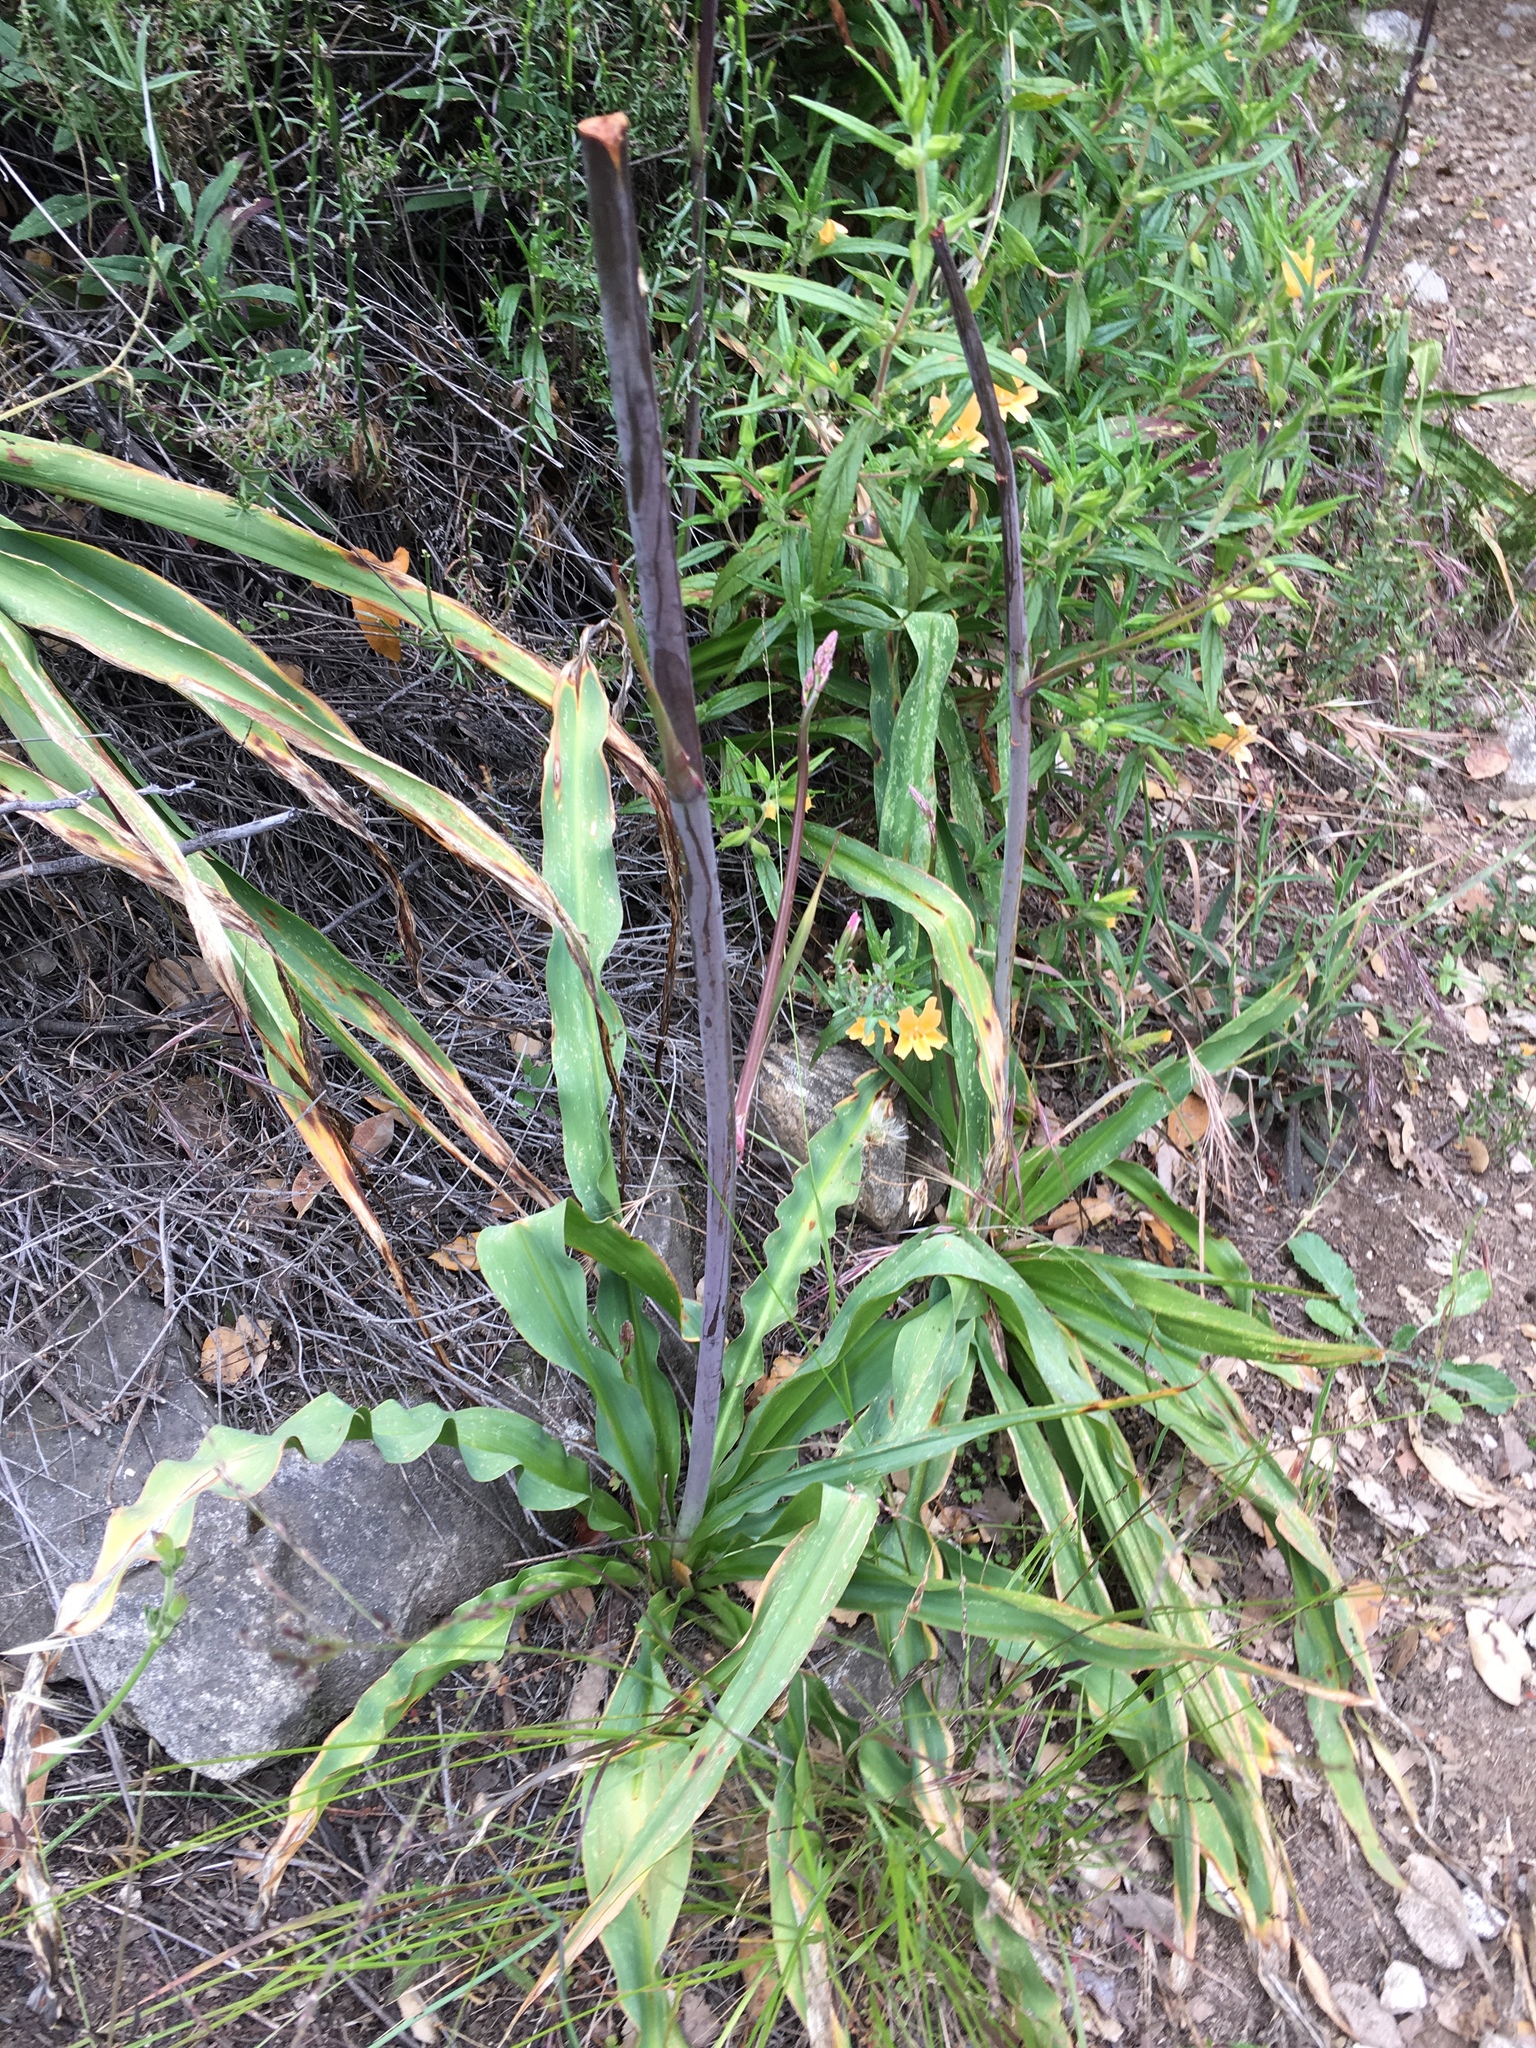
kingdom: Plantae
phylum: Tracheophyta
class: Liliopsida
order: Asparagales
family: Asparagaceae
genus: Chlorogalum
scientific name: Chlorogalum pomeridianum
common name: Amole
